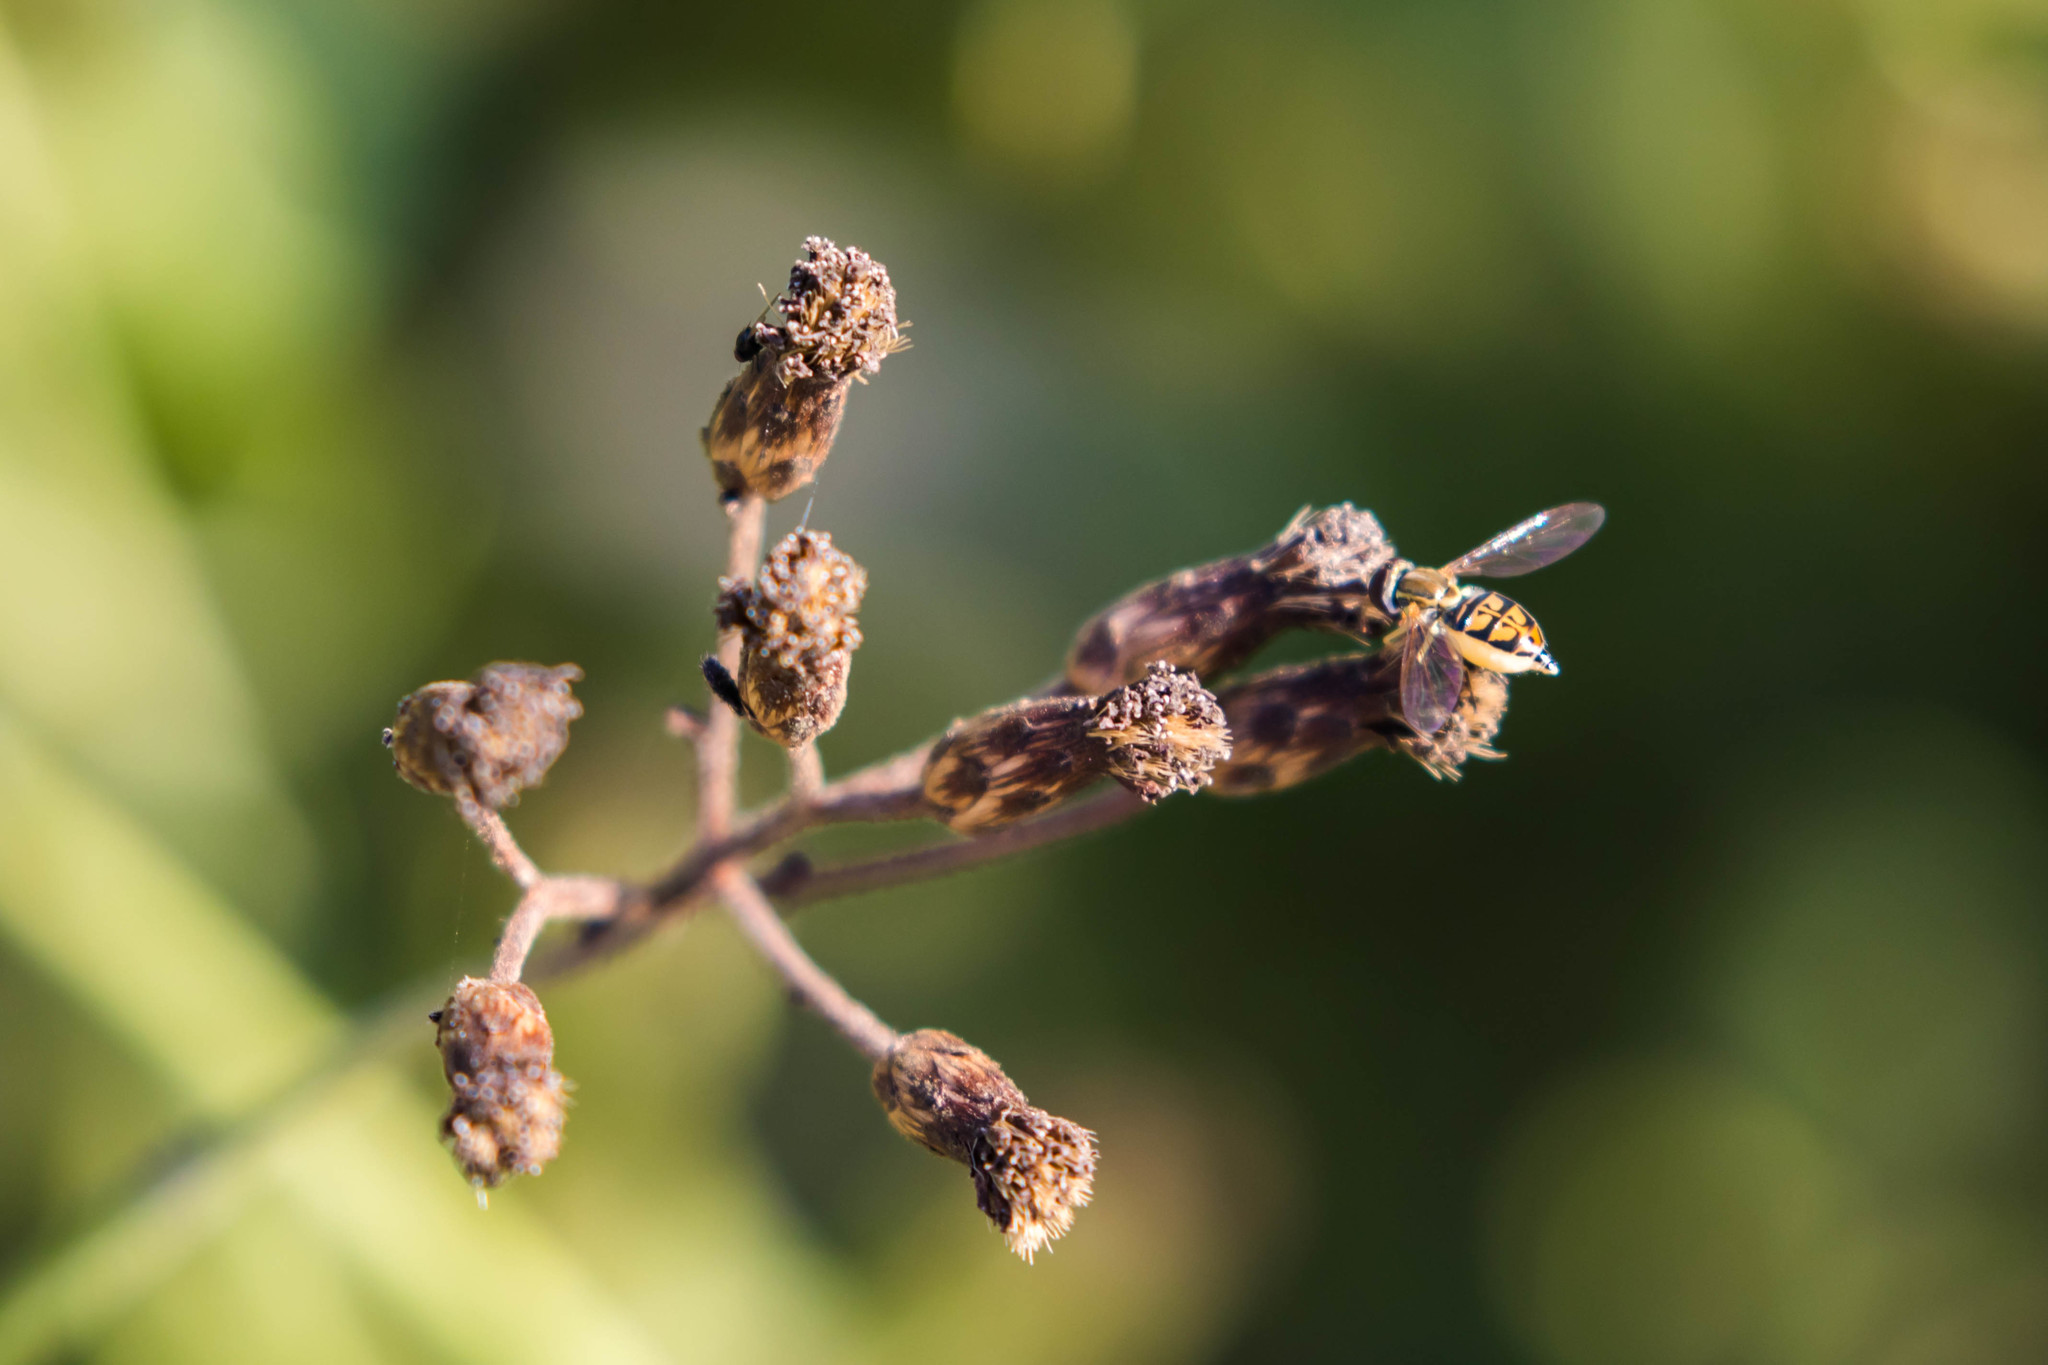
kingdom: Animalia
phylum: Arthropoda
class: Insecta
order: Diptera
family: Syrphidae
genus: Toxomerus
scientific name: Toxomerus marginatus
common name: Syrphid fly
